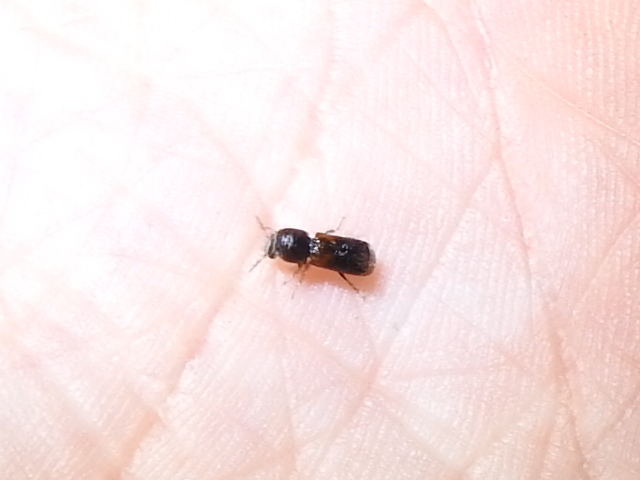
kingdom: Animalia
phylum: Arthropoda
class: Insecta
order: Coleoptera
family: Bostrichidae
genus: Xylobiops
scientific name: Xylobiops basilaris
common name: Red-shouldered bostrichid
